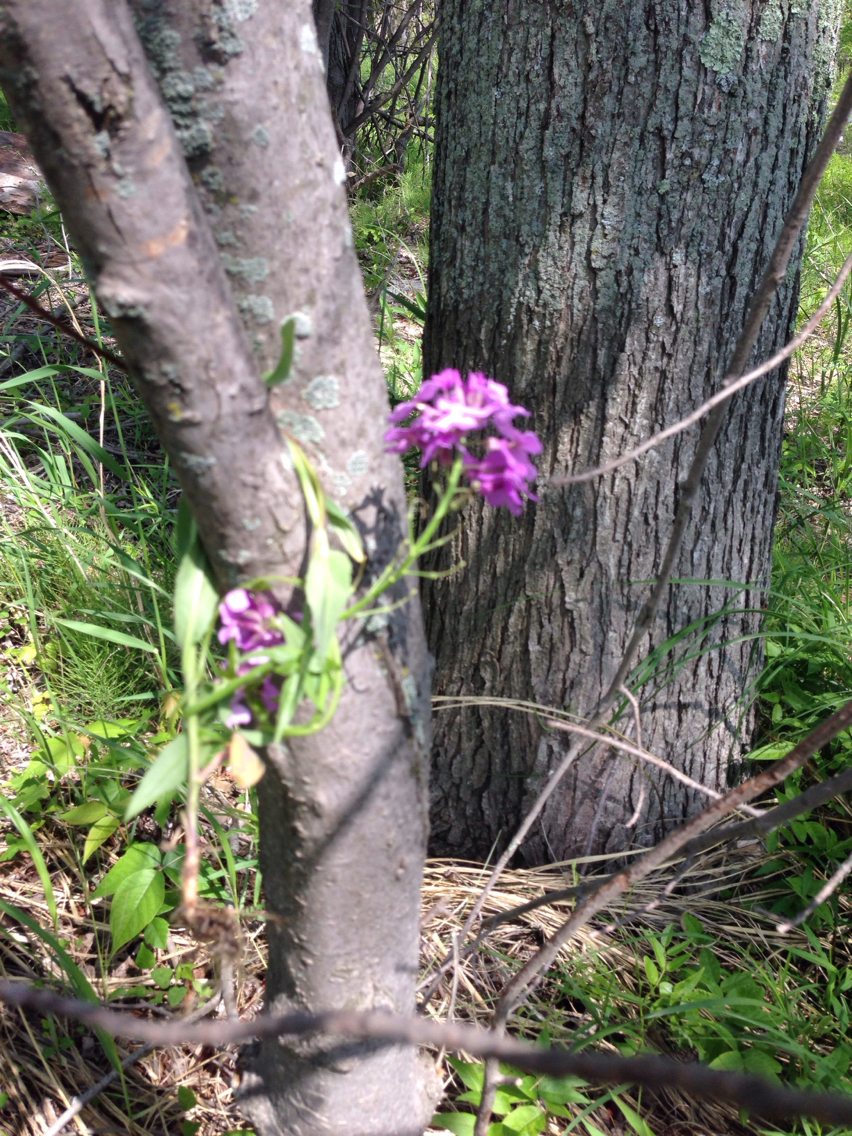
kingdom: Plantae
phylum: Tracheophyta
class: Magnoliopsida
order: Brassicales
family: Brassicaceae
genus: Hesperis
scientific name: Hesperis matronalis
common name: Dame's-violet
